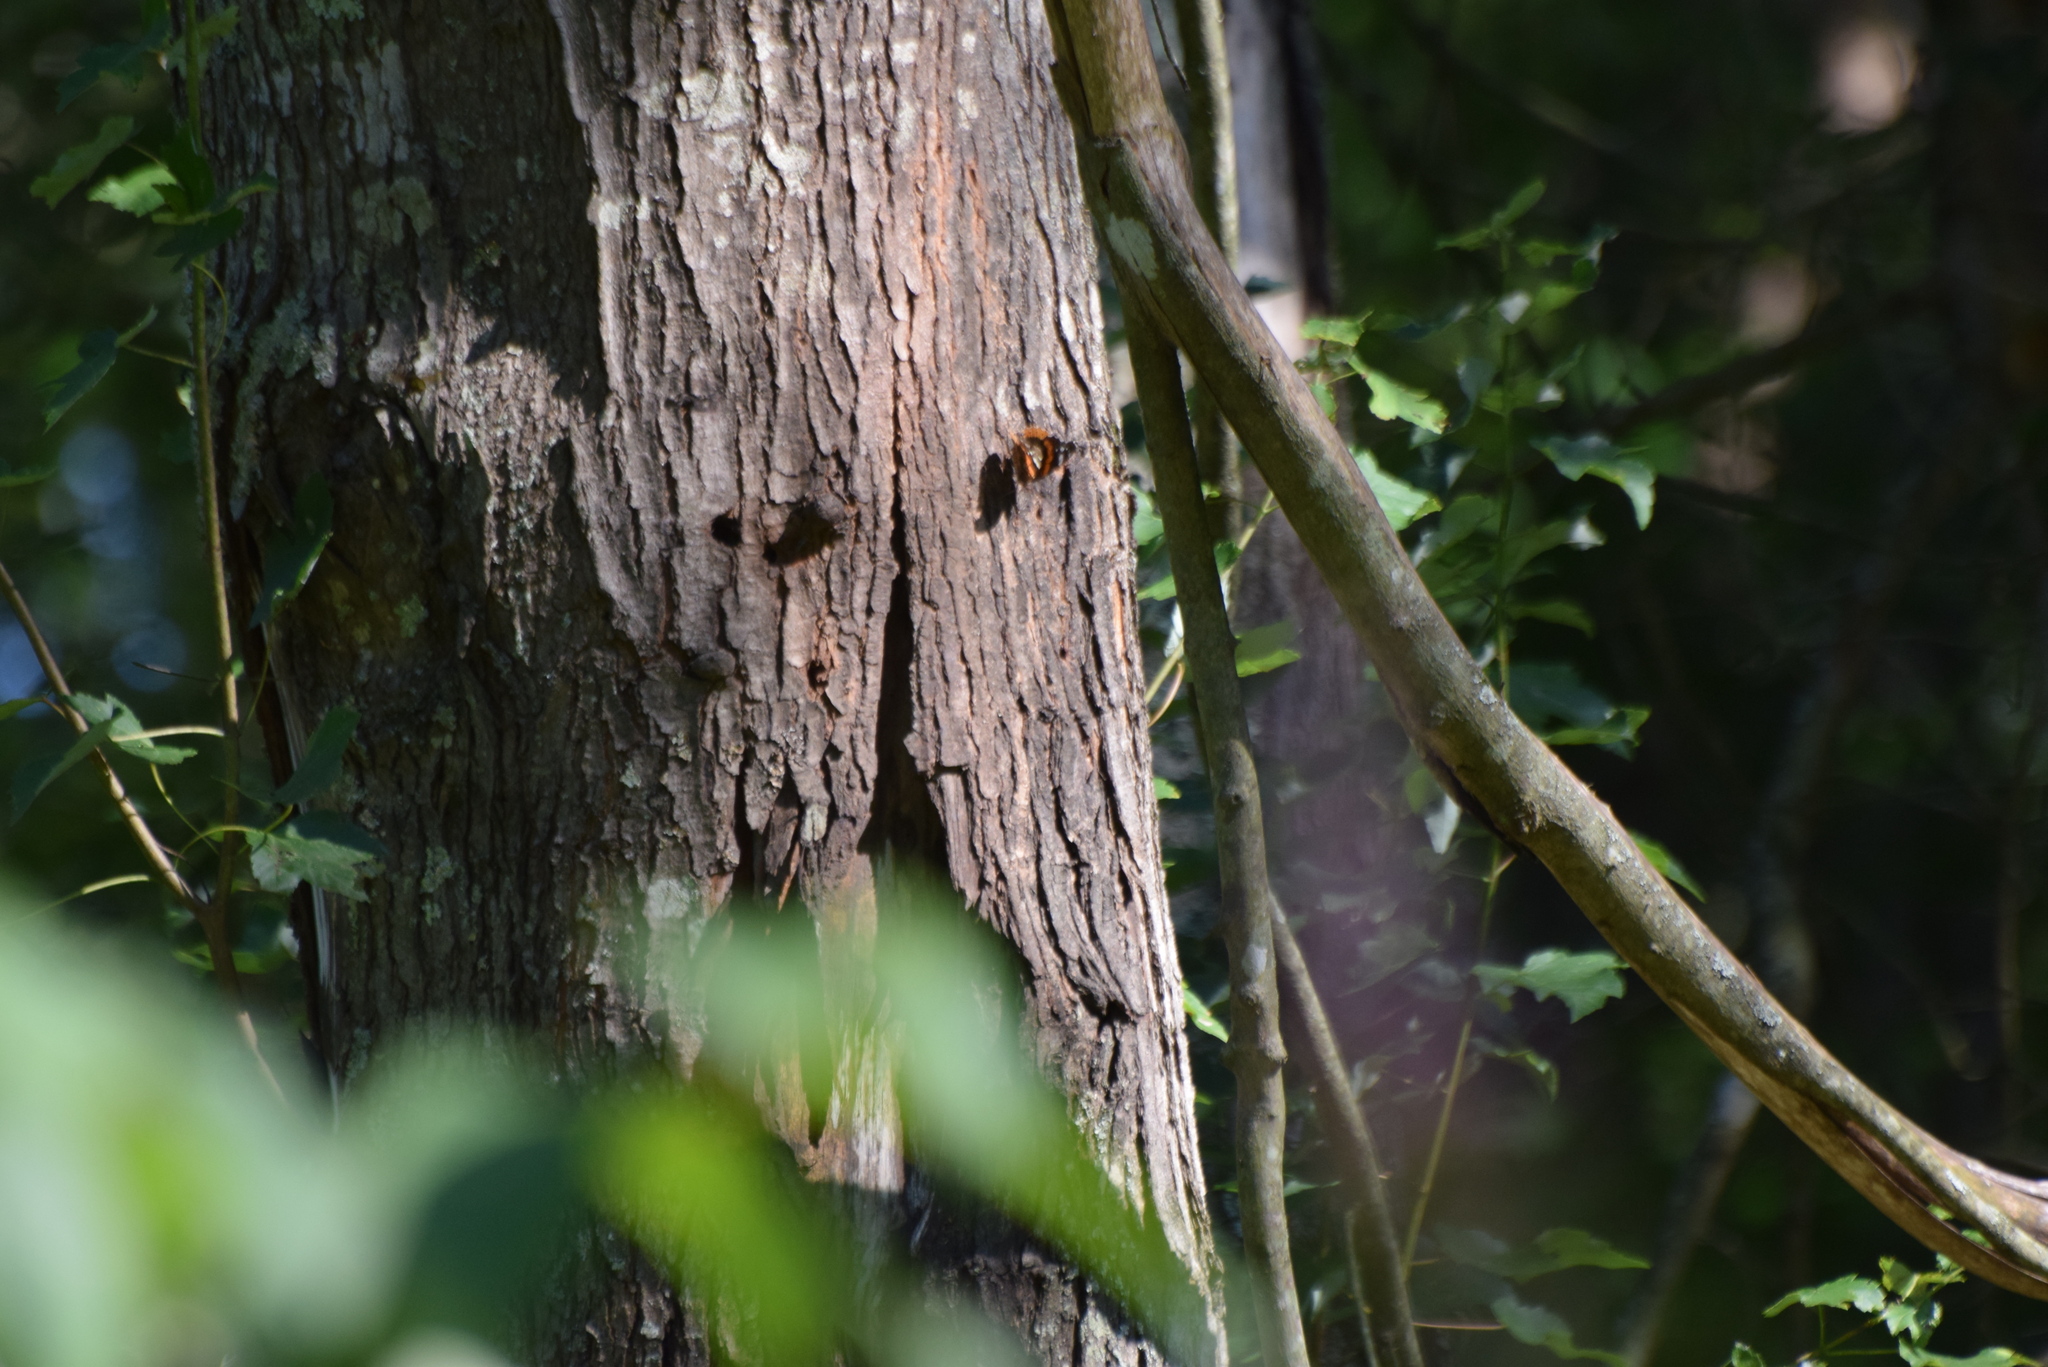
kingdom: Animalia
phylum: Arthropoda
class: Insecta
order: Lepidoptera
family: Nymphalidae
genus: Vanessa
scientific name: Vanessa atalanta
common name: Red admiral
